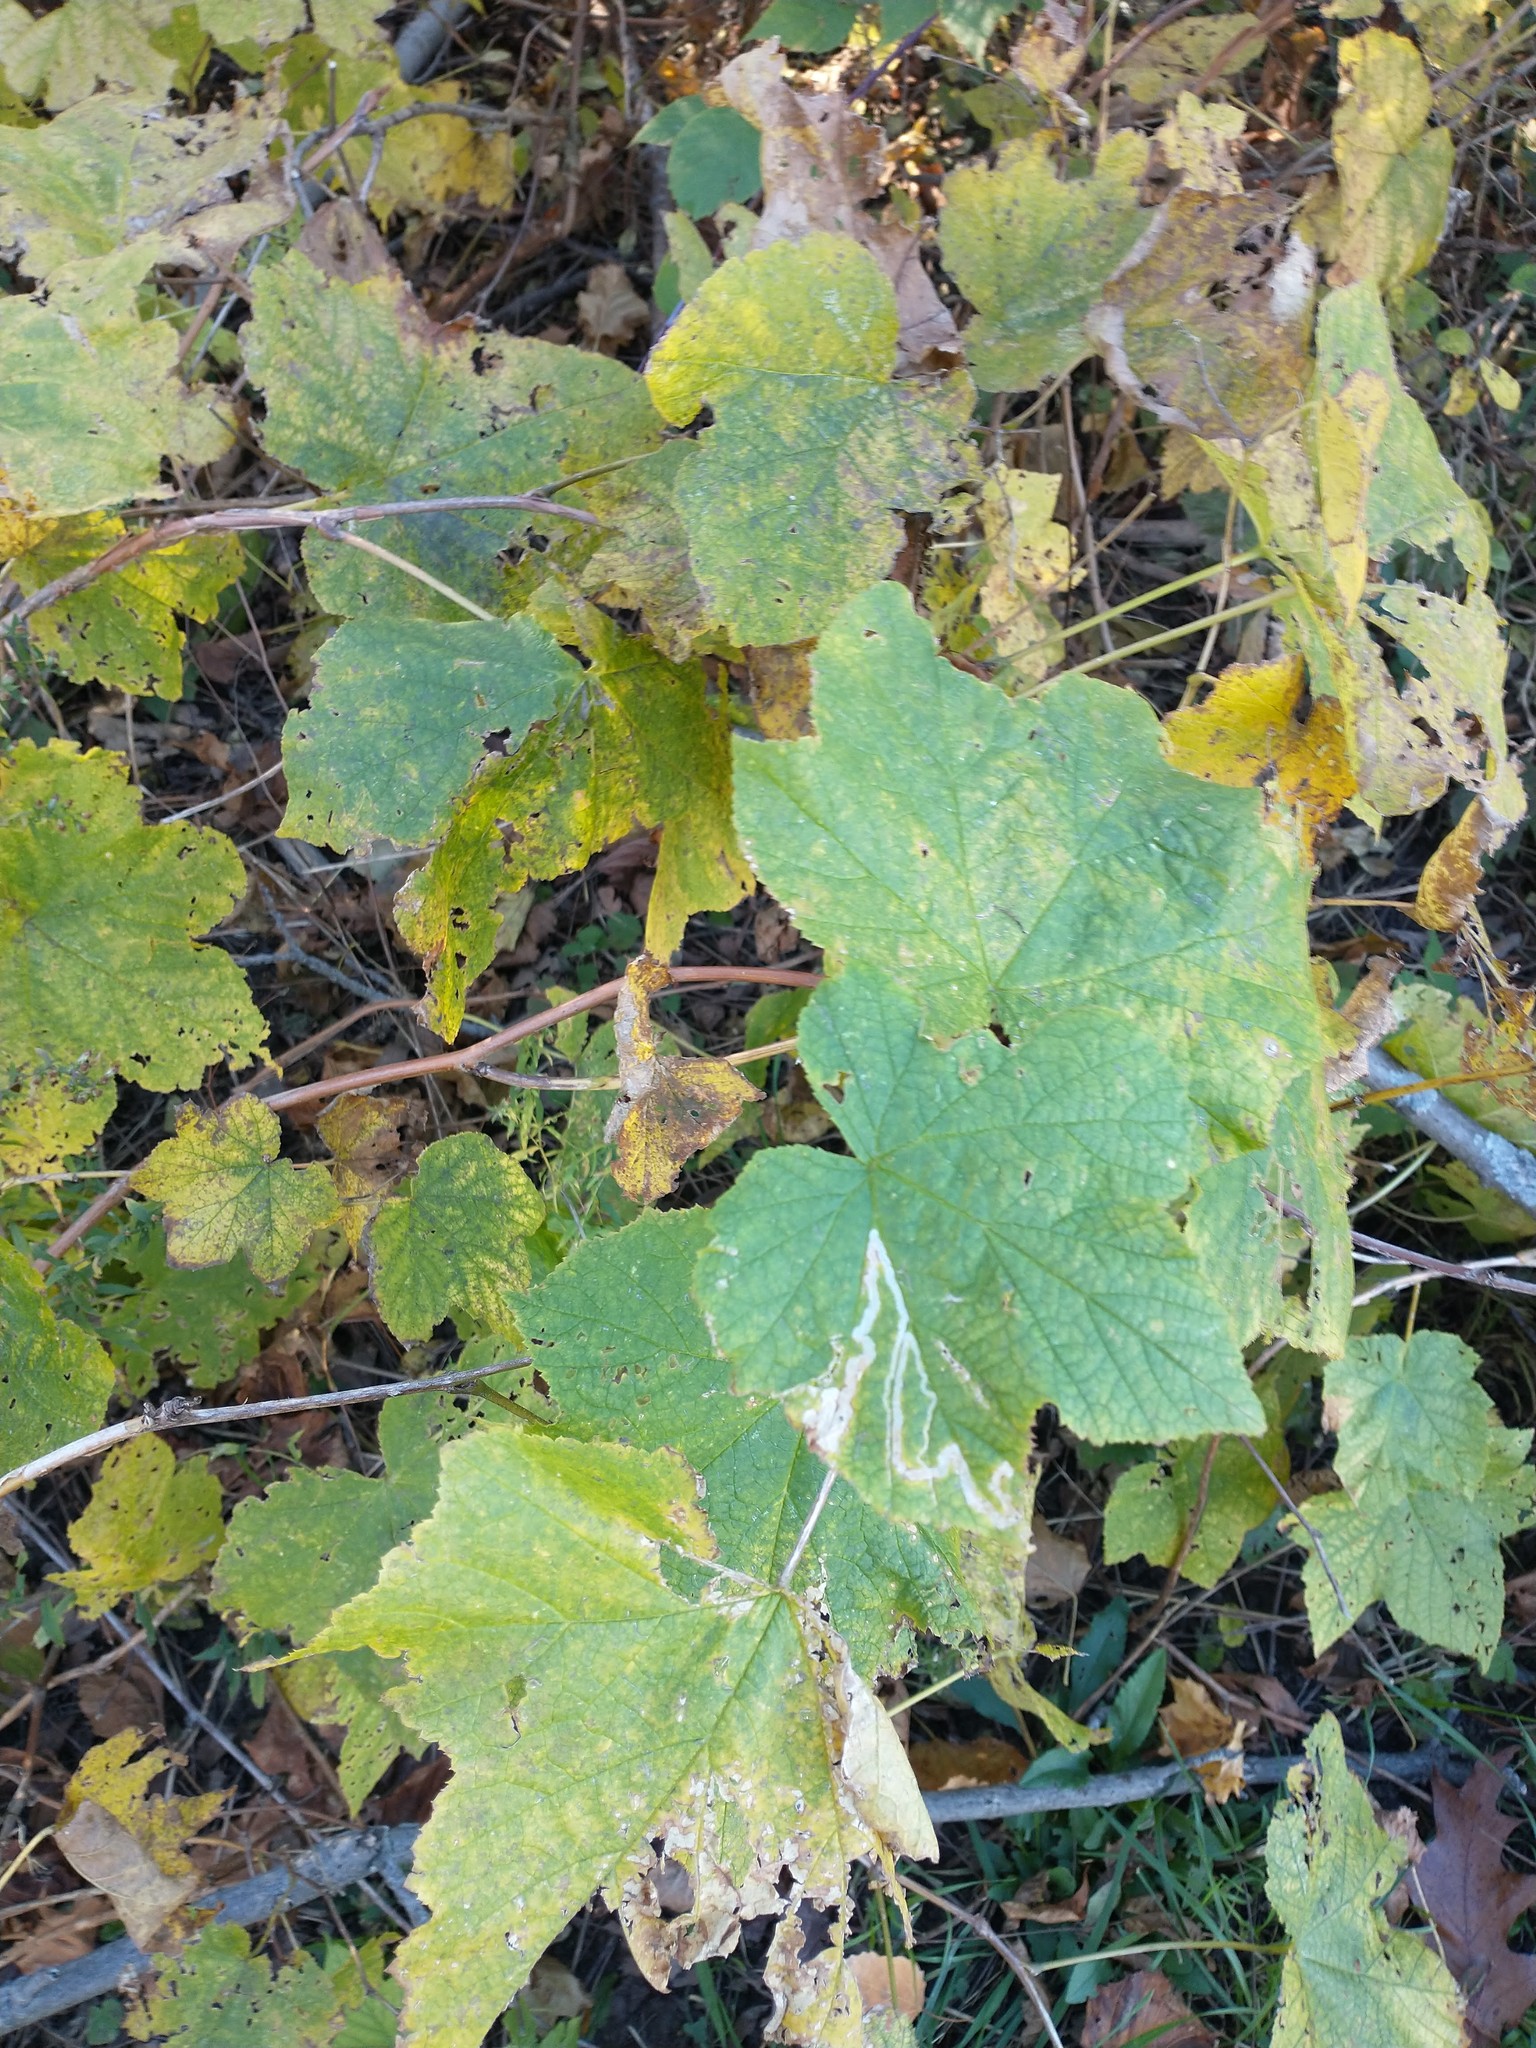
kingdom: Plantae
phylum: Tracheophyta
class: Magnoliopsida
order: Rosales
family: Rosaceae
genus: Rubus
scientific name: Rubus odoratus
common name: Purple-flowered raspberry
